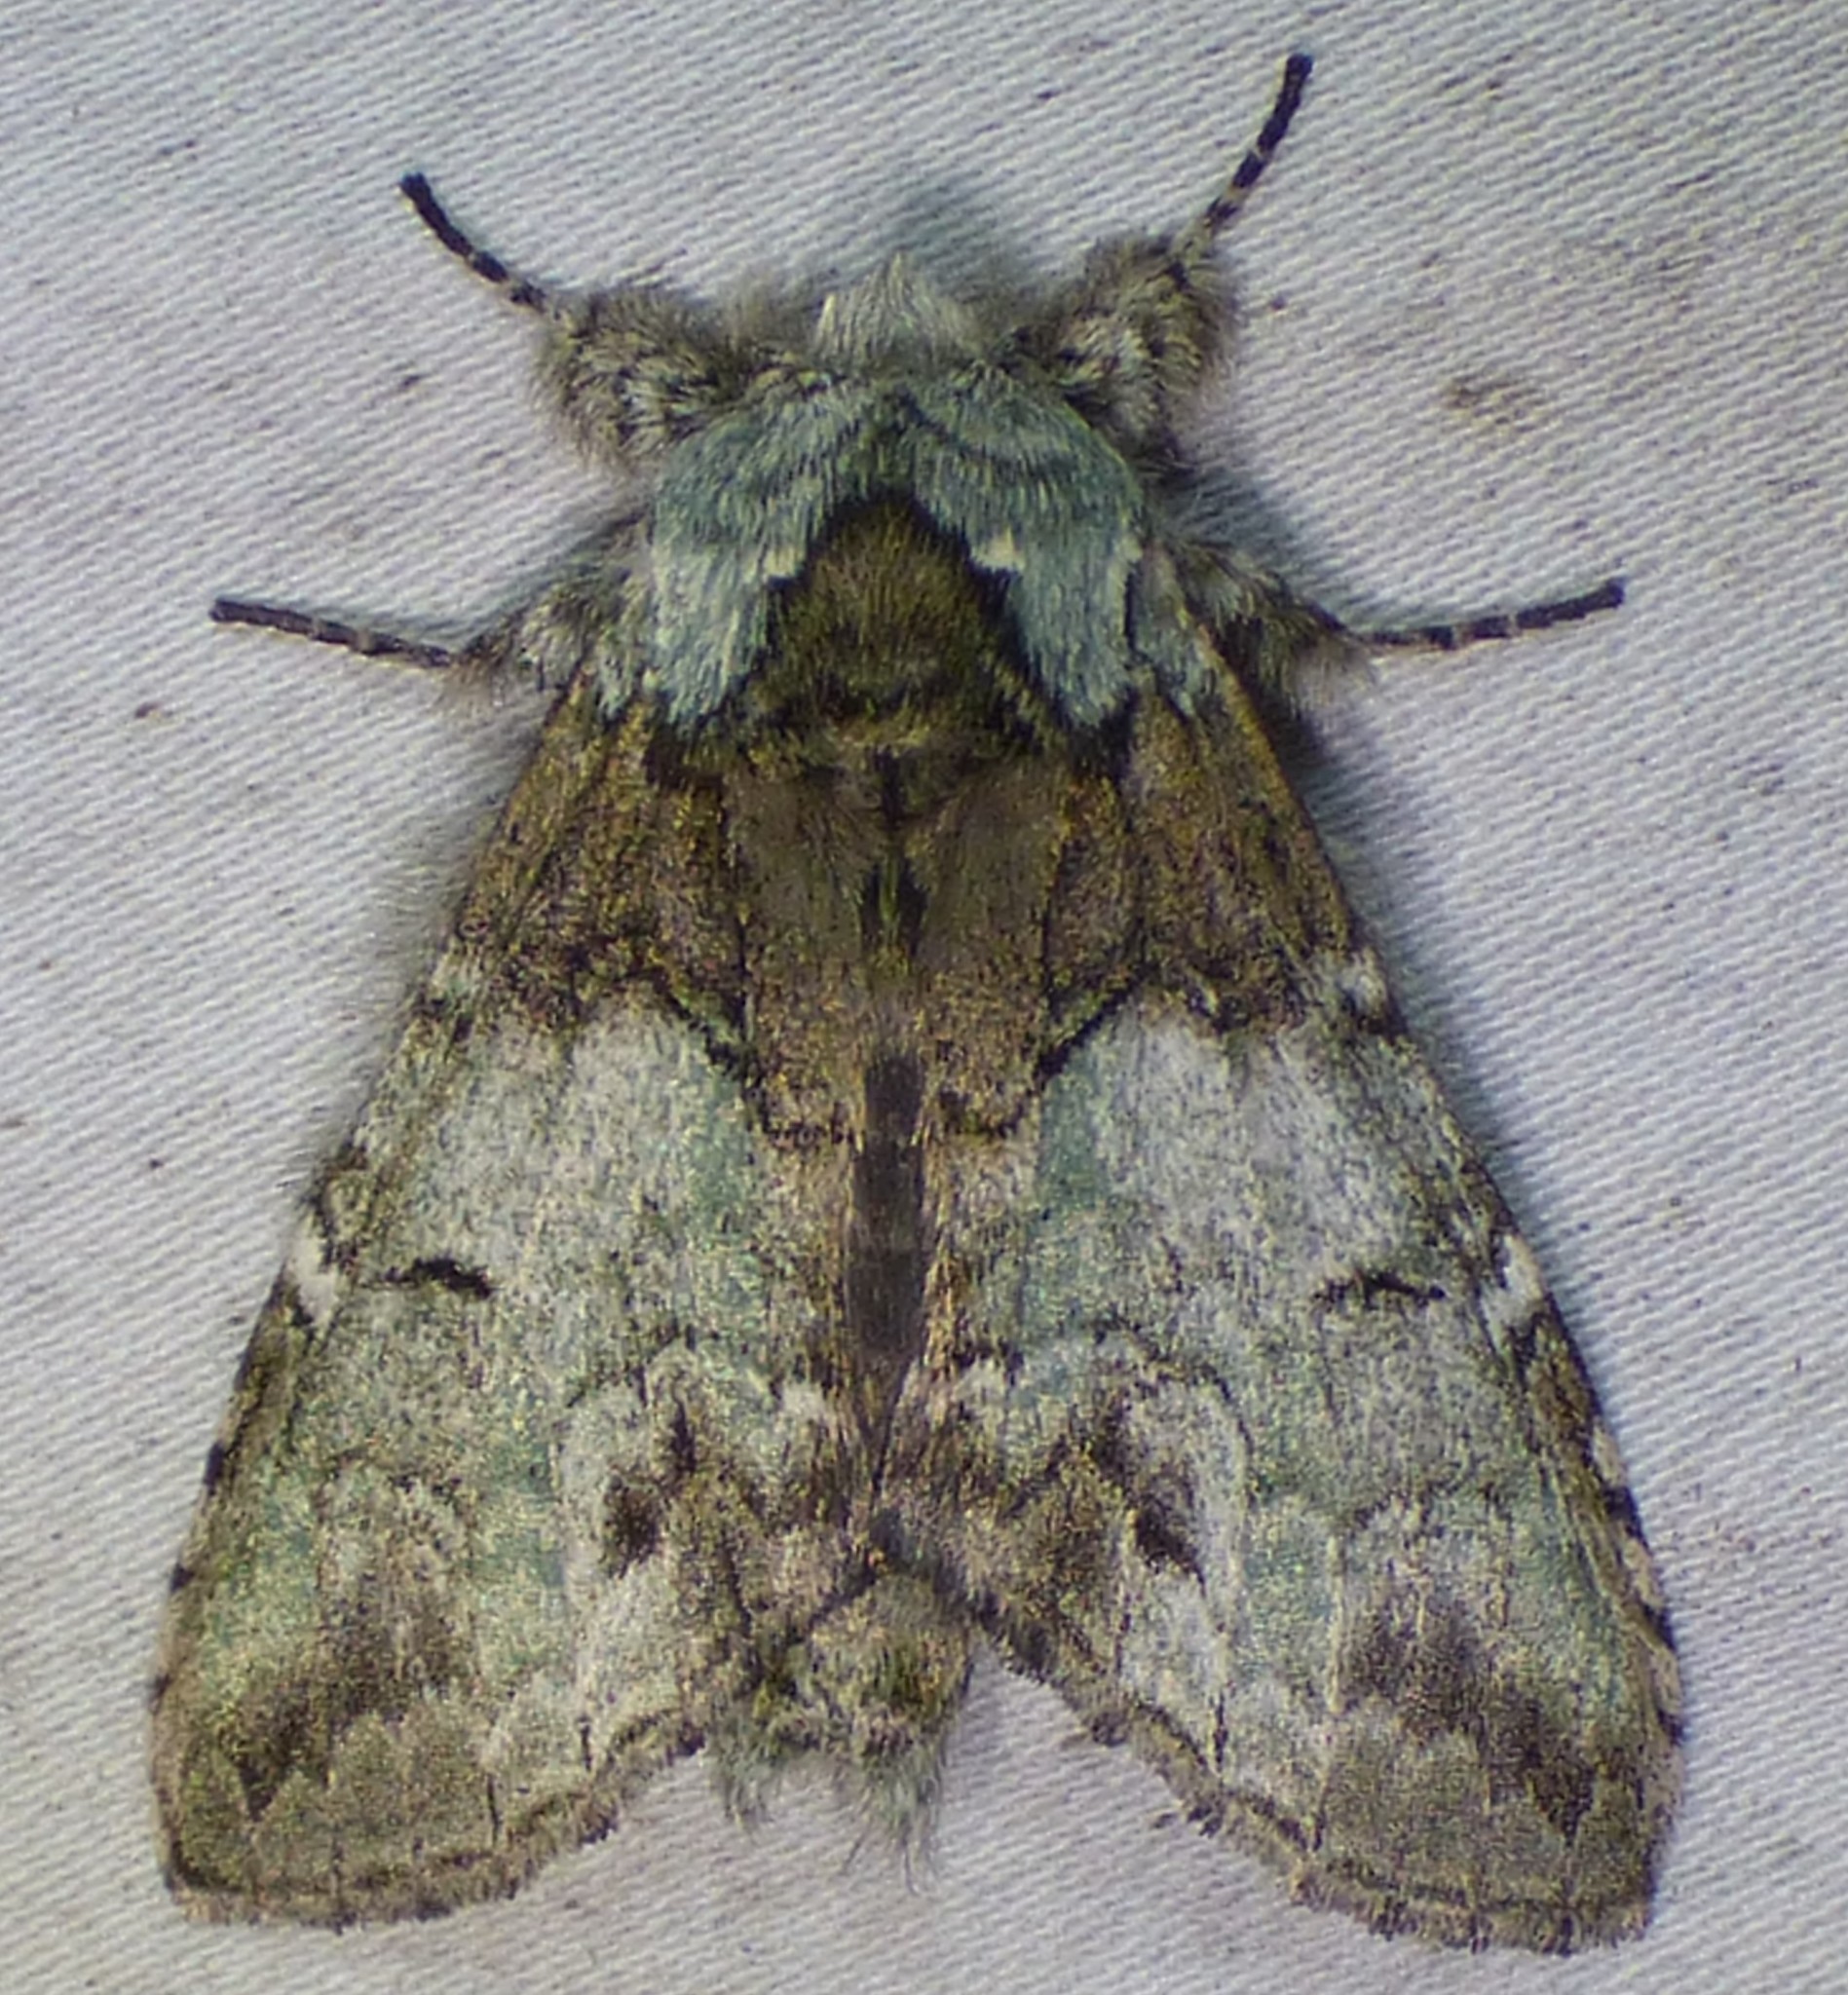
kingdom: Animalia
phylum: Arthropoda
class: Insecta
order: Lepidoptera
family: Notodontidae
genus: Macrurocampa
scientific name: Macrurocampa marthesia
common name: Mottled prominent
